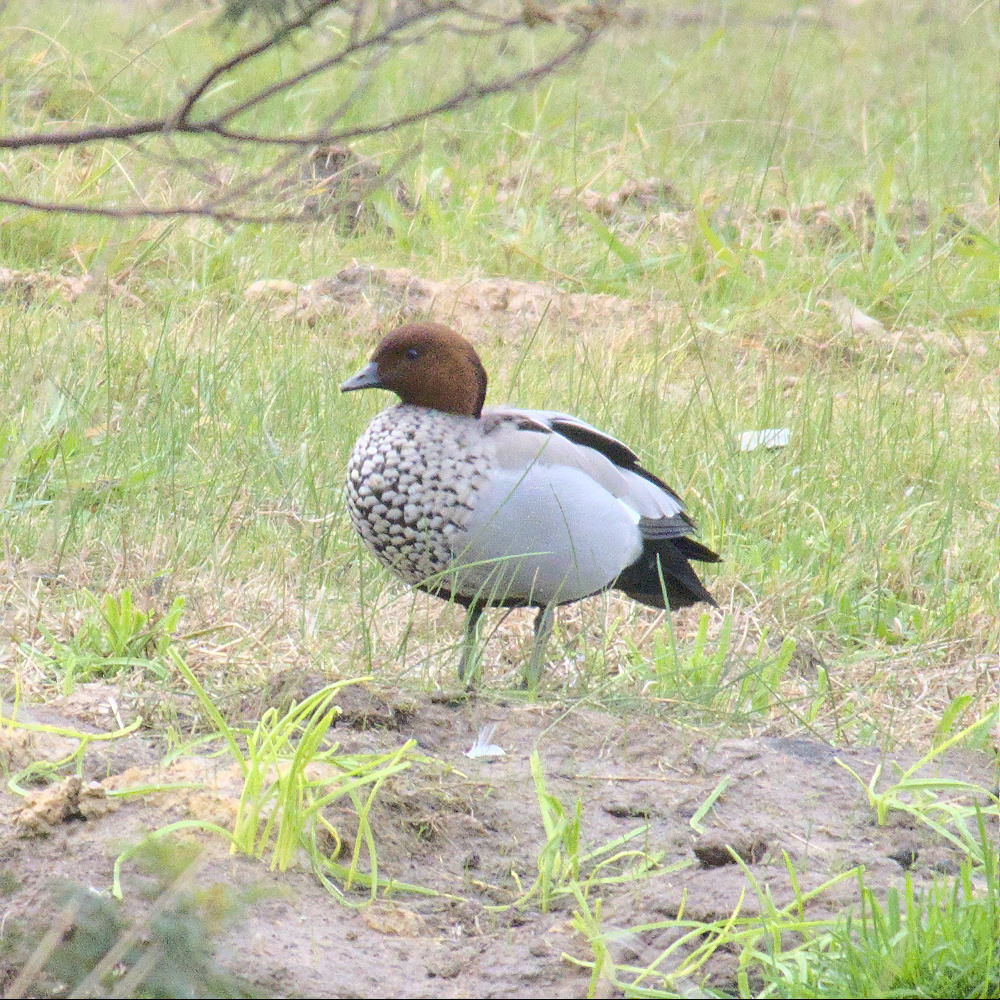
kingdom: Animalia
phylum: Chordata
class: Aves
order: Anseriformes
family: Anatidae
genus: Chenonetta
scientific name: Chenonetta jubata
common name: Maned duck
